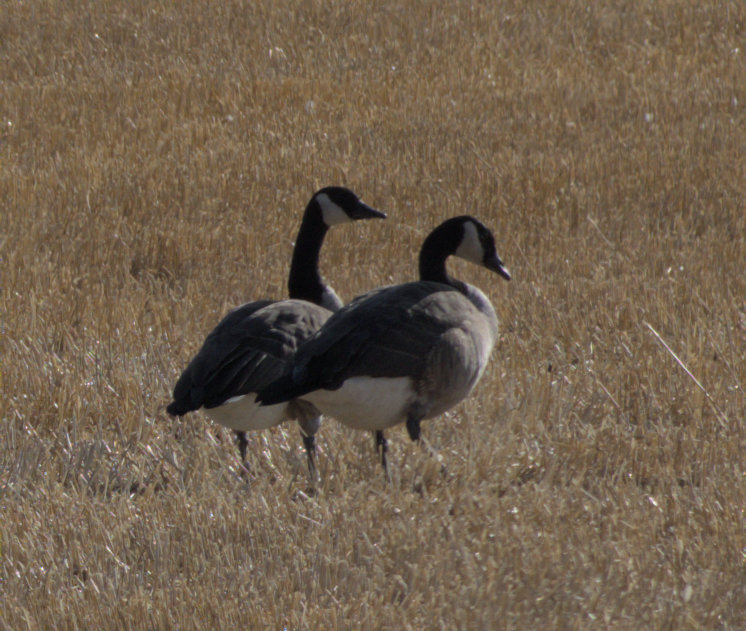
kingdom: Animalia
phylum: Chordata
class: Aves
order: Anseriformes
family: Anatidae
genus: Branta
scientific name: Branta canadensis
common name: Canada goose
